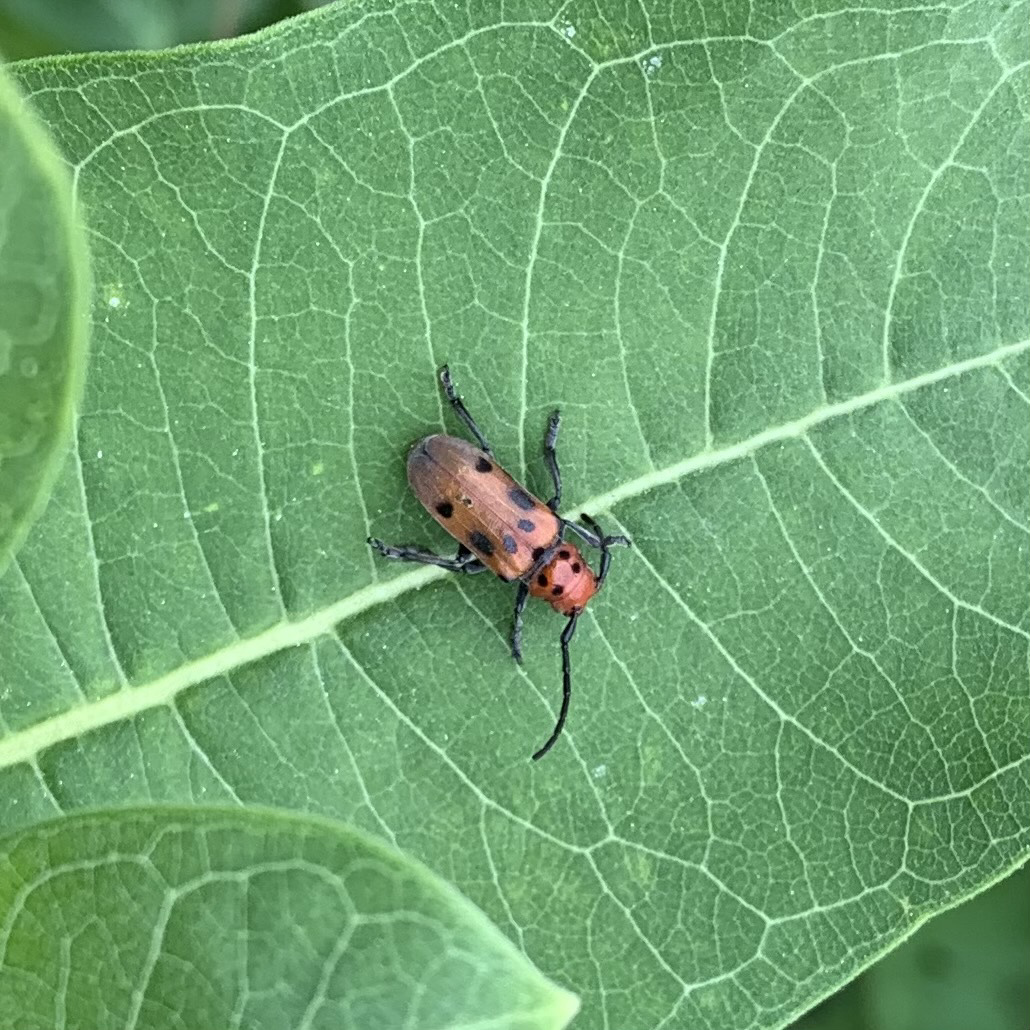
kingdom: Animalia
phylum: Arthropoda
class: Insecta
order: Coleoptera
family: Cerambycidae
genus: Tetraopes
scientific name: Tetraopes tetrophthalmus
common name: Red milkweed beetle
